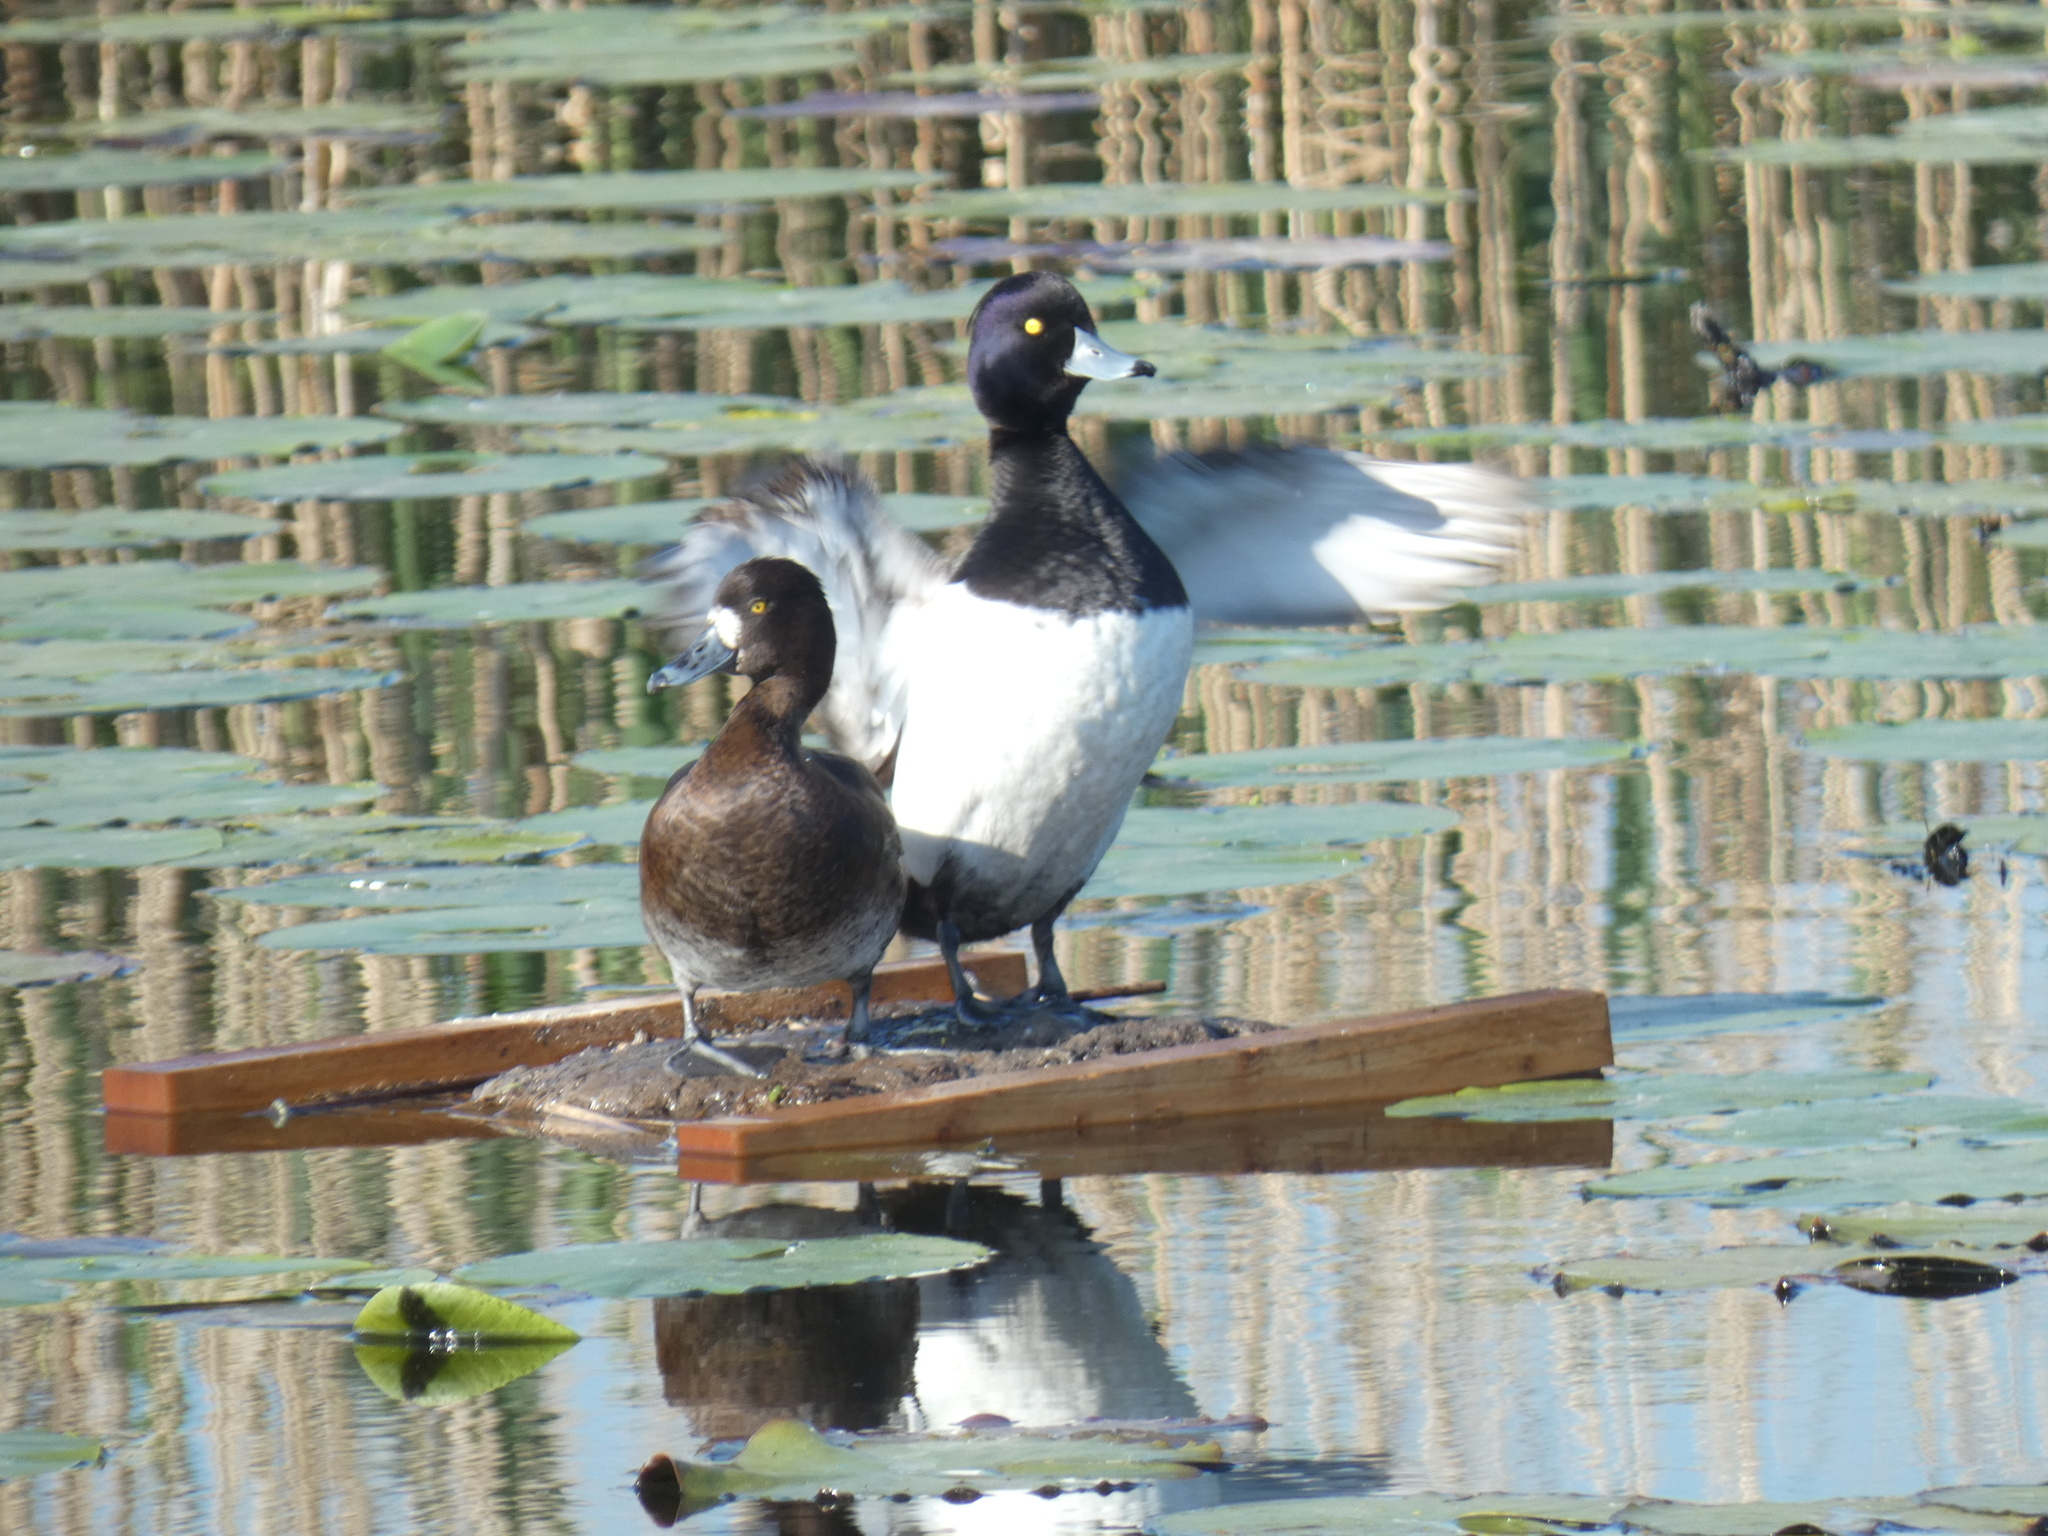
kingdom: Animalia
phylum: Chordata
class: Aves
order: Anseriformes
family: Anatidae
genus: Aythya
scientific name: Aythya fuligula
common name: Tufted duck
